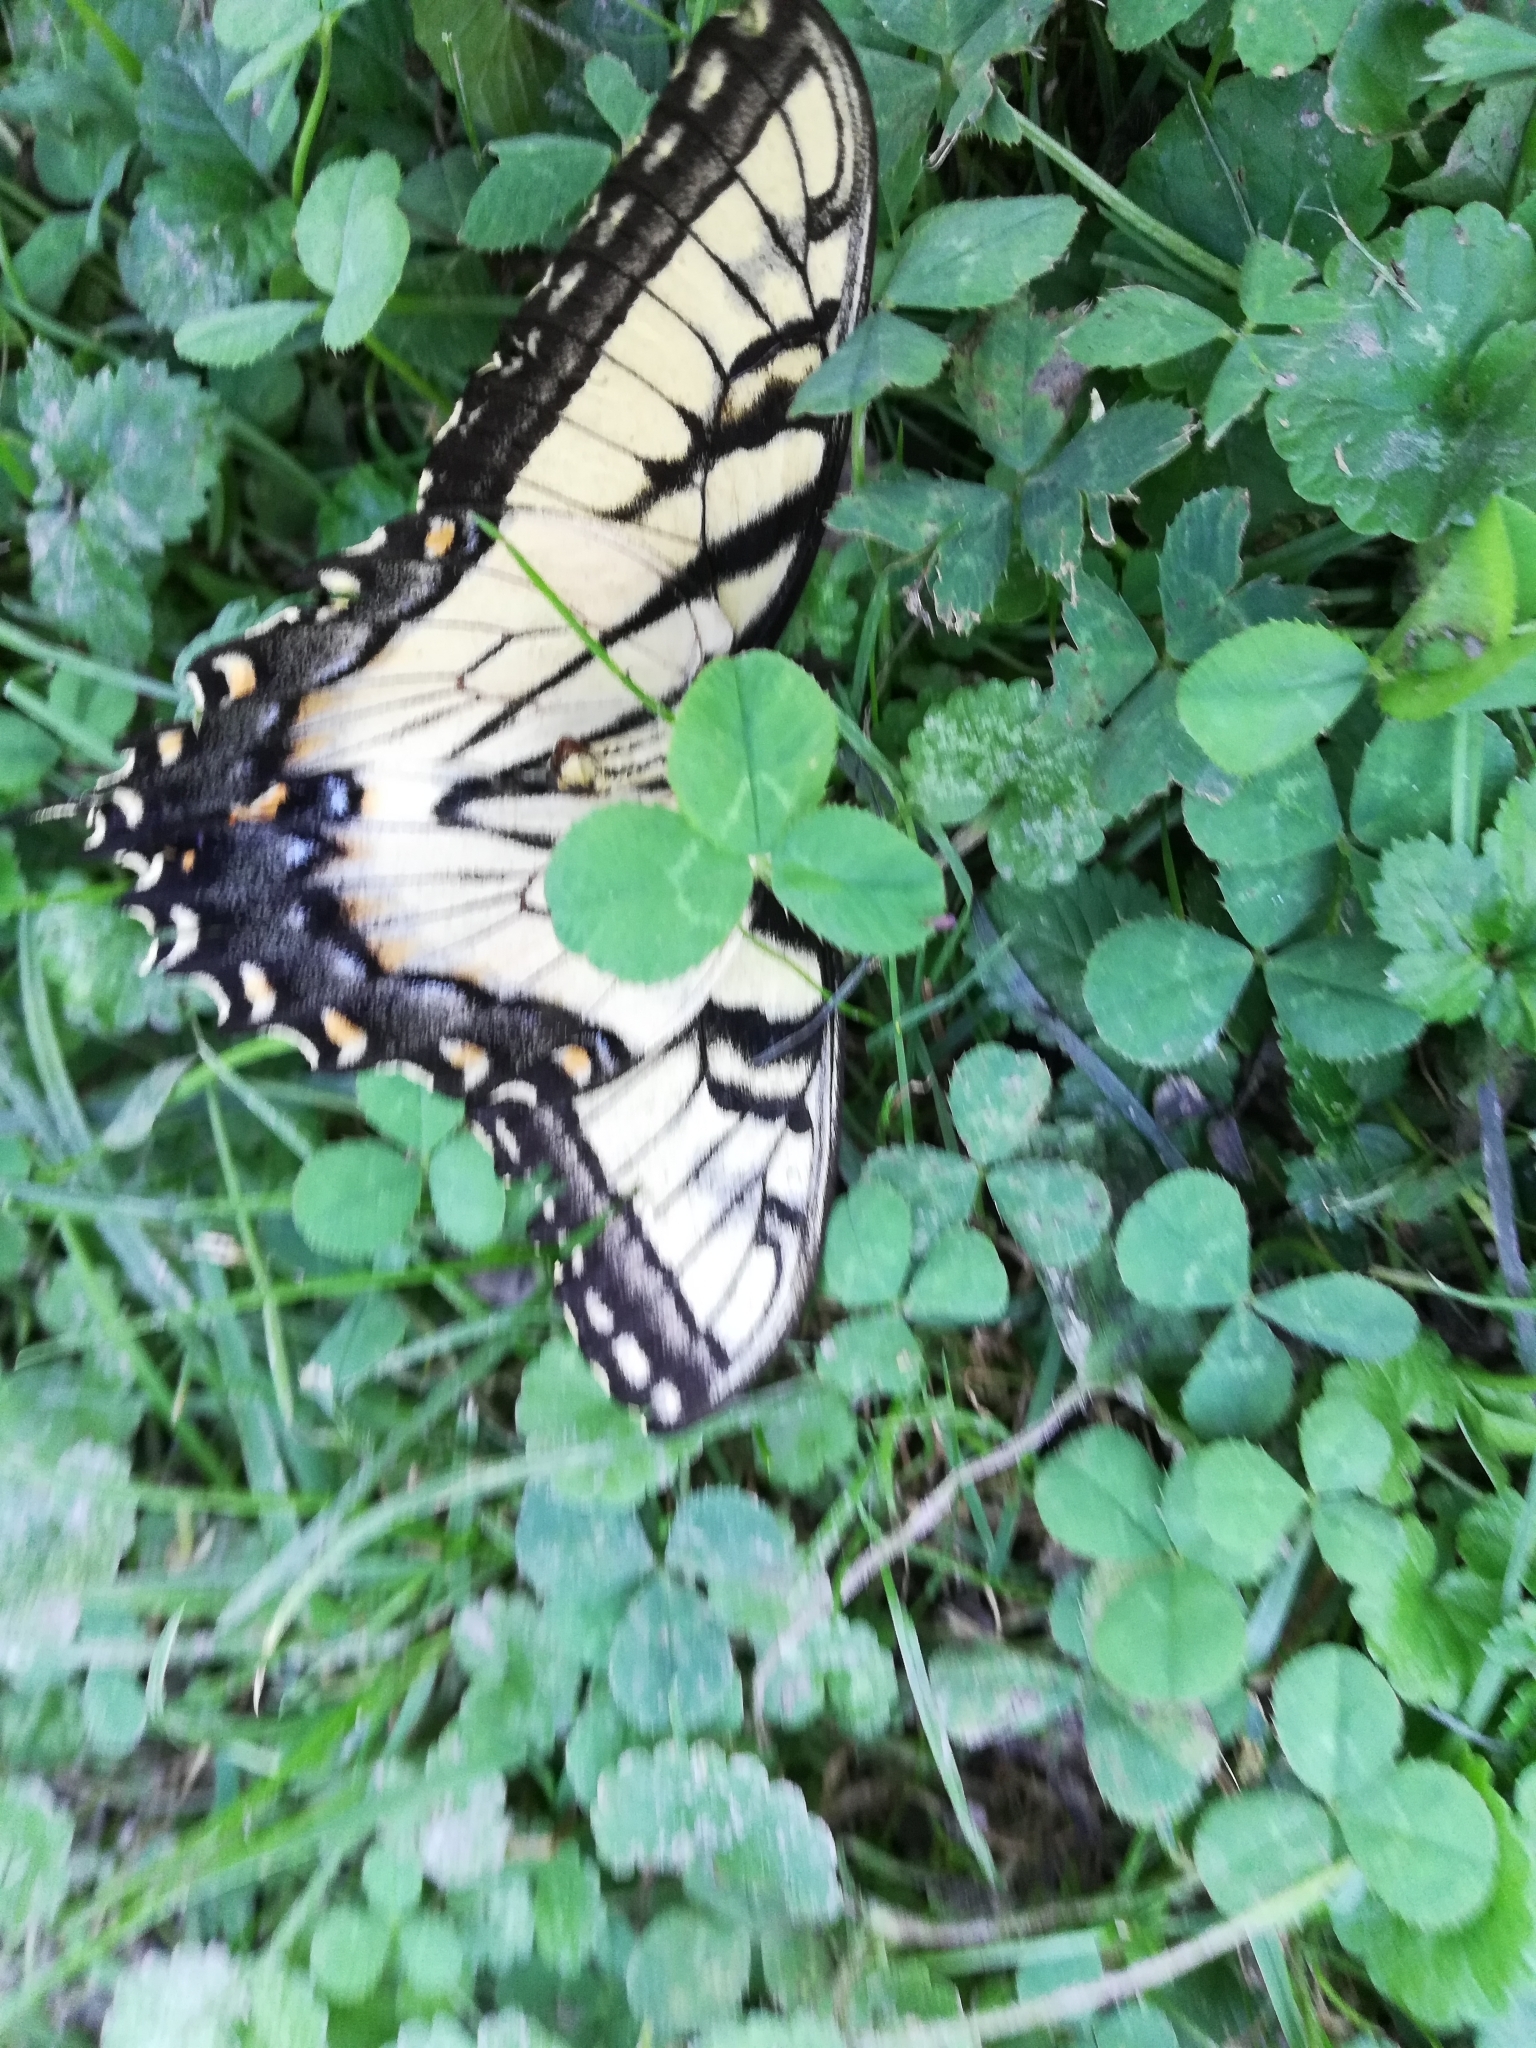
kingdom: Animalia
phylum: Arthropoda
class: Insecta
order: Lepidoptera
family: Papilionidae
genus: Papilio
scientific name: Papilio glaucus
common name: Tiger swallowtail
